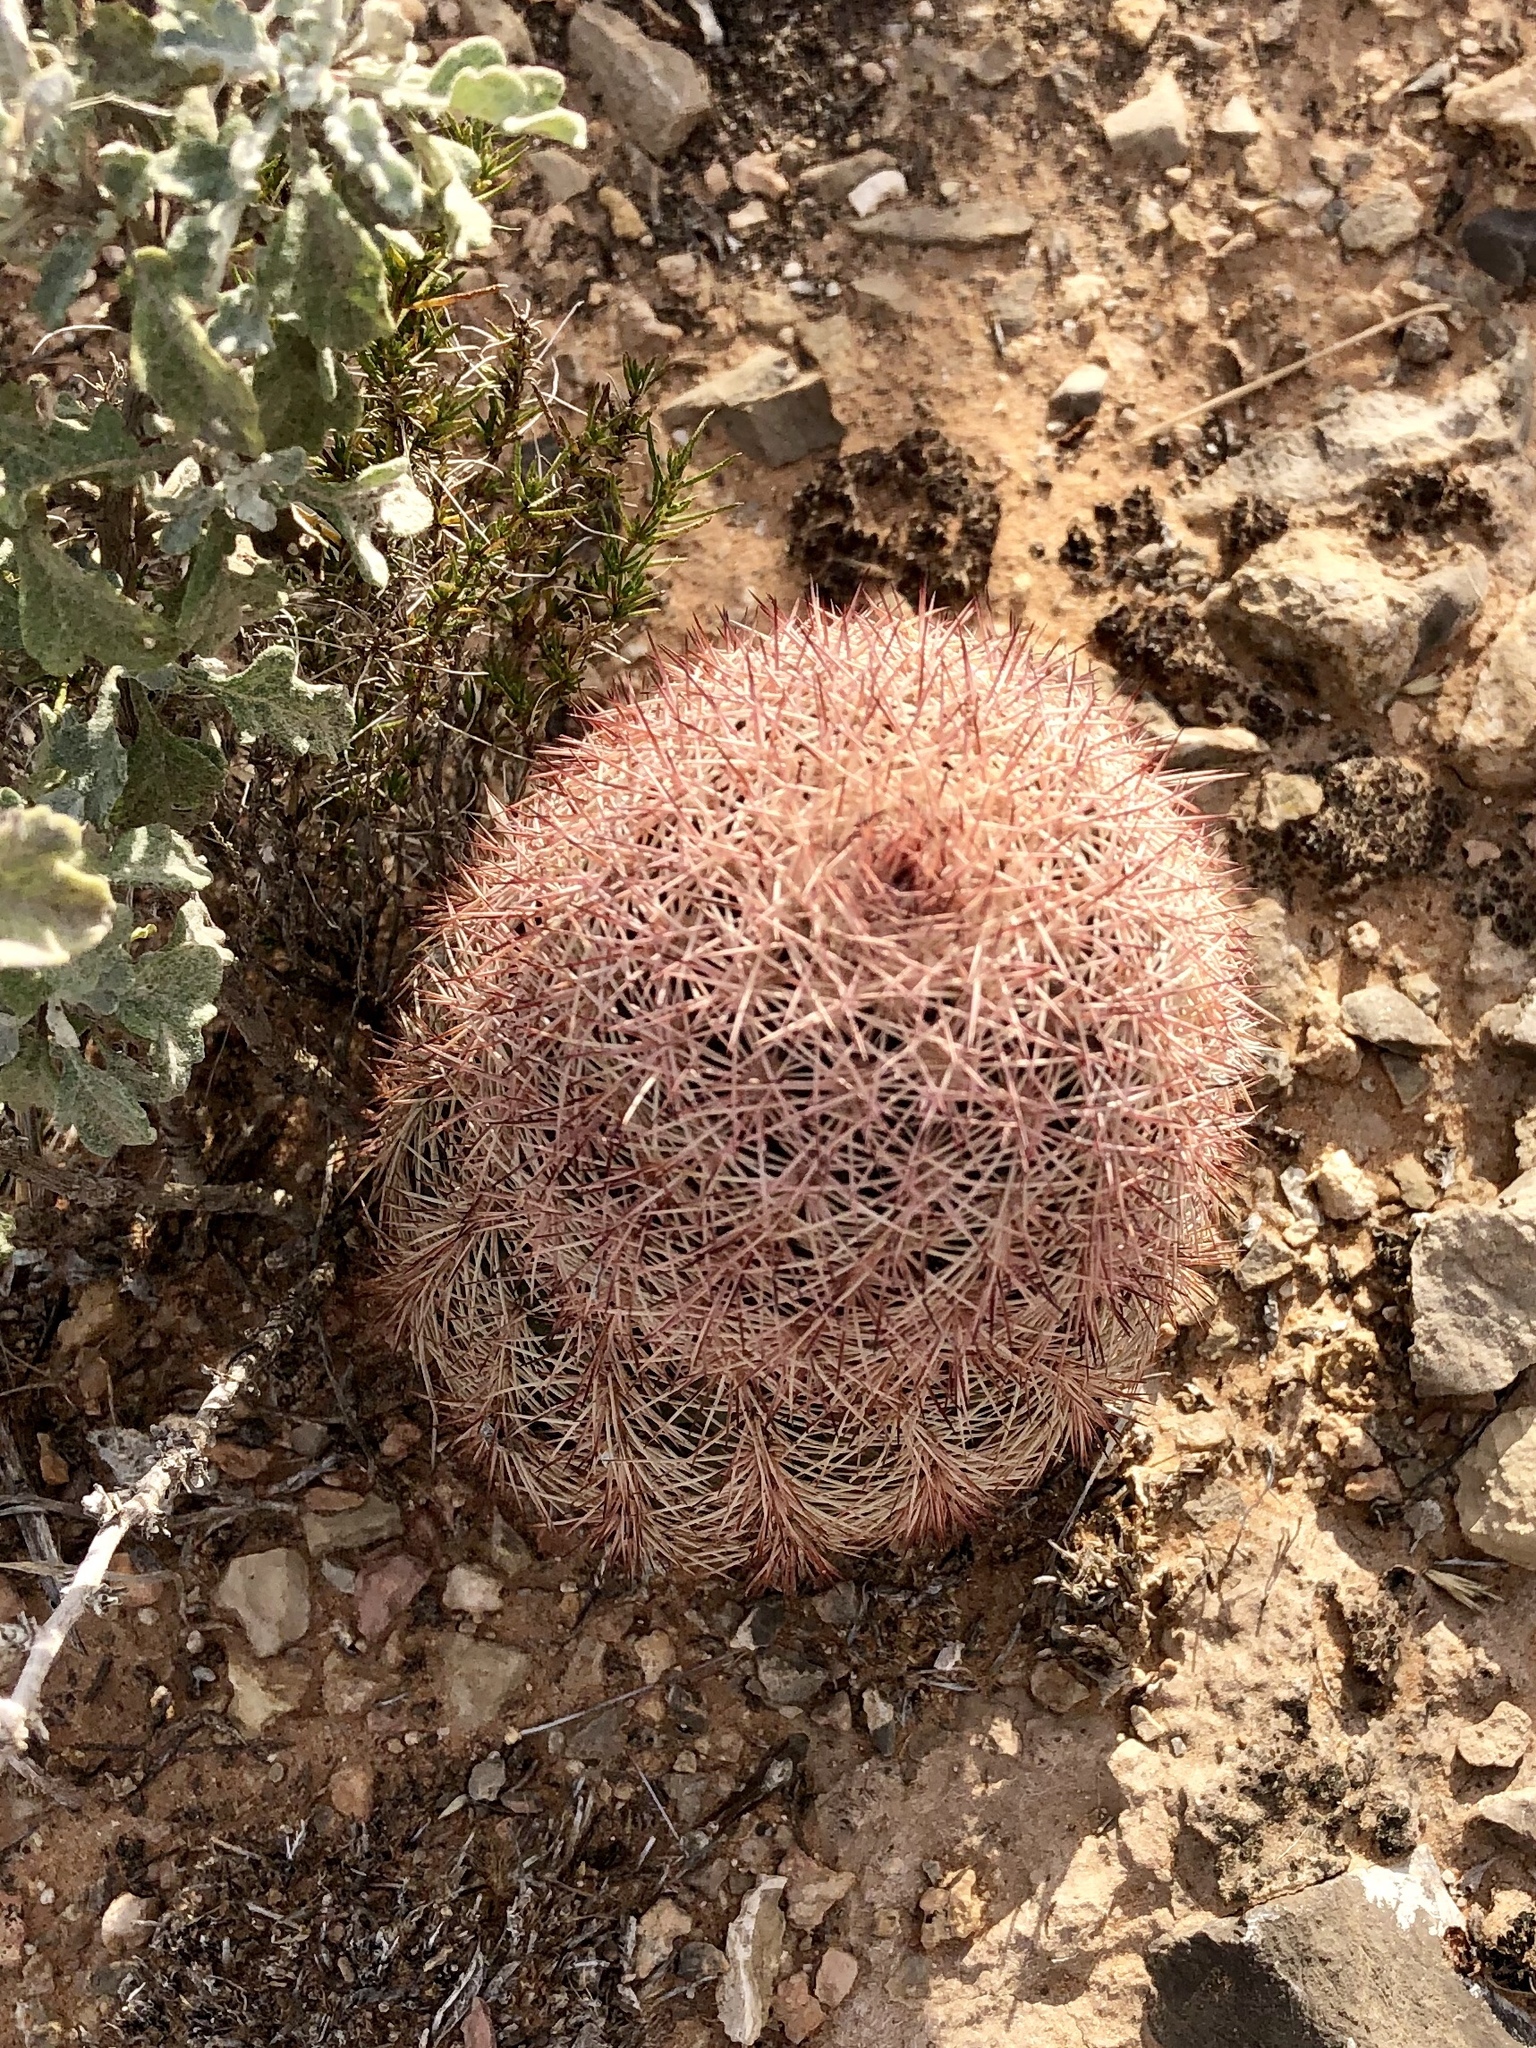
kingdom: Plantae
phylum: Tracheophyta
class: Magnoliopsida
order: Caryophyllales
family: Cactaceae
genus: Echinocereus
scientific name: Echinocereus dasyacanthus
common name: Spiny hedgehog cactus
